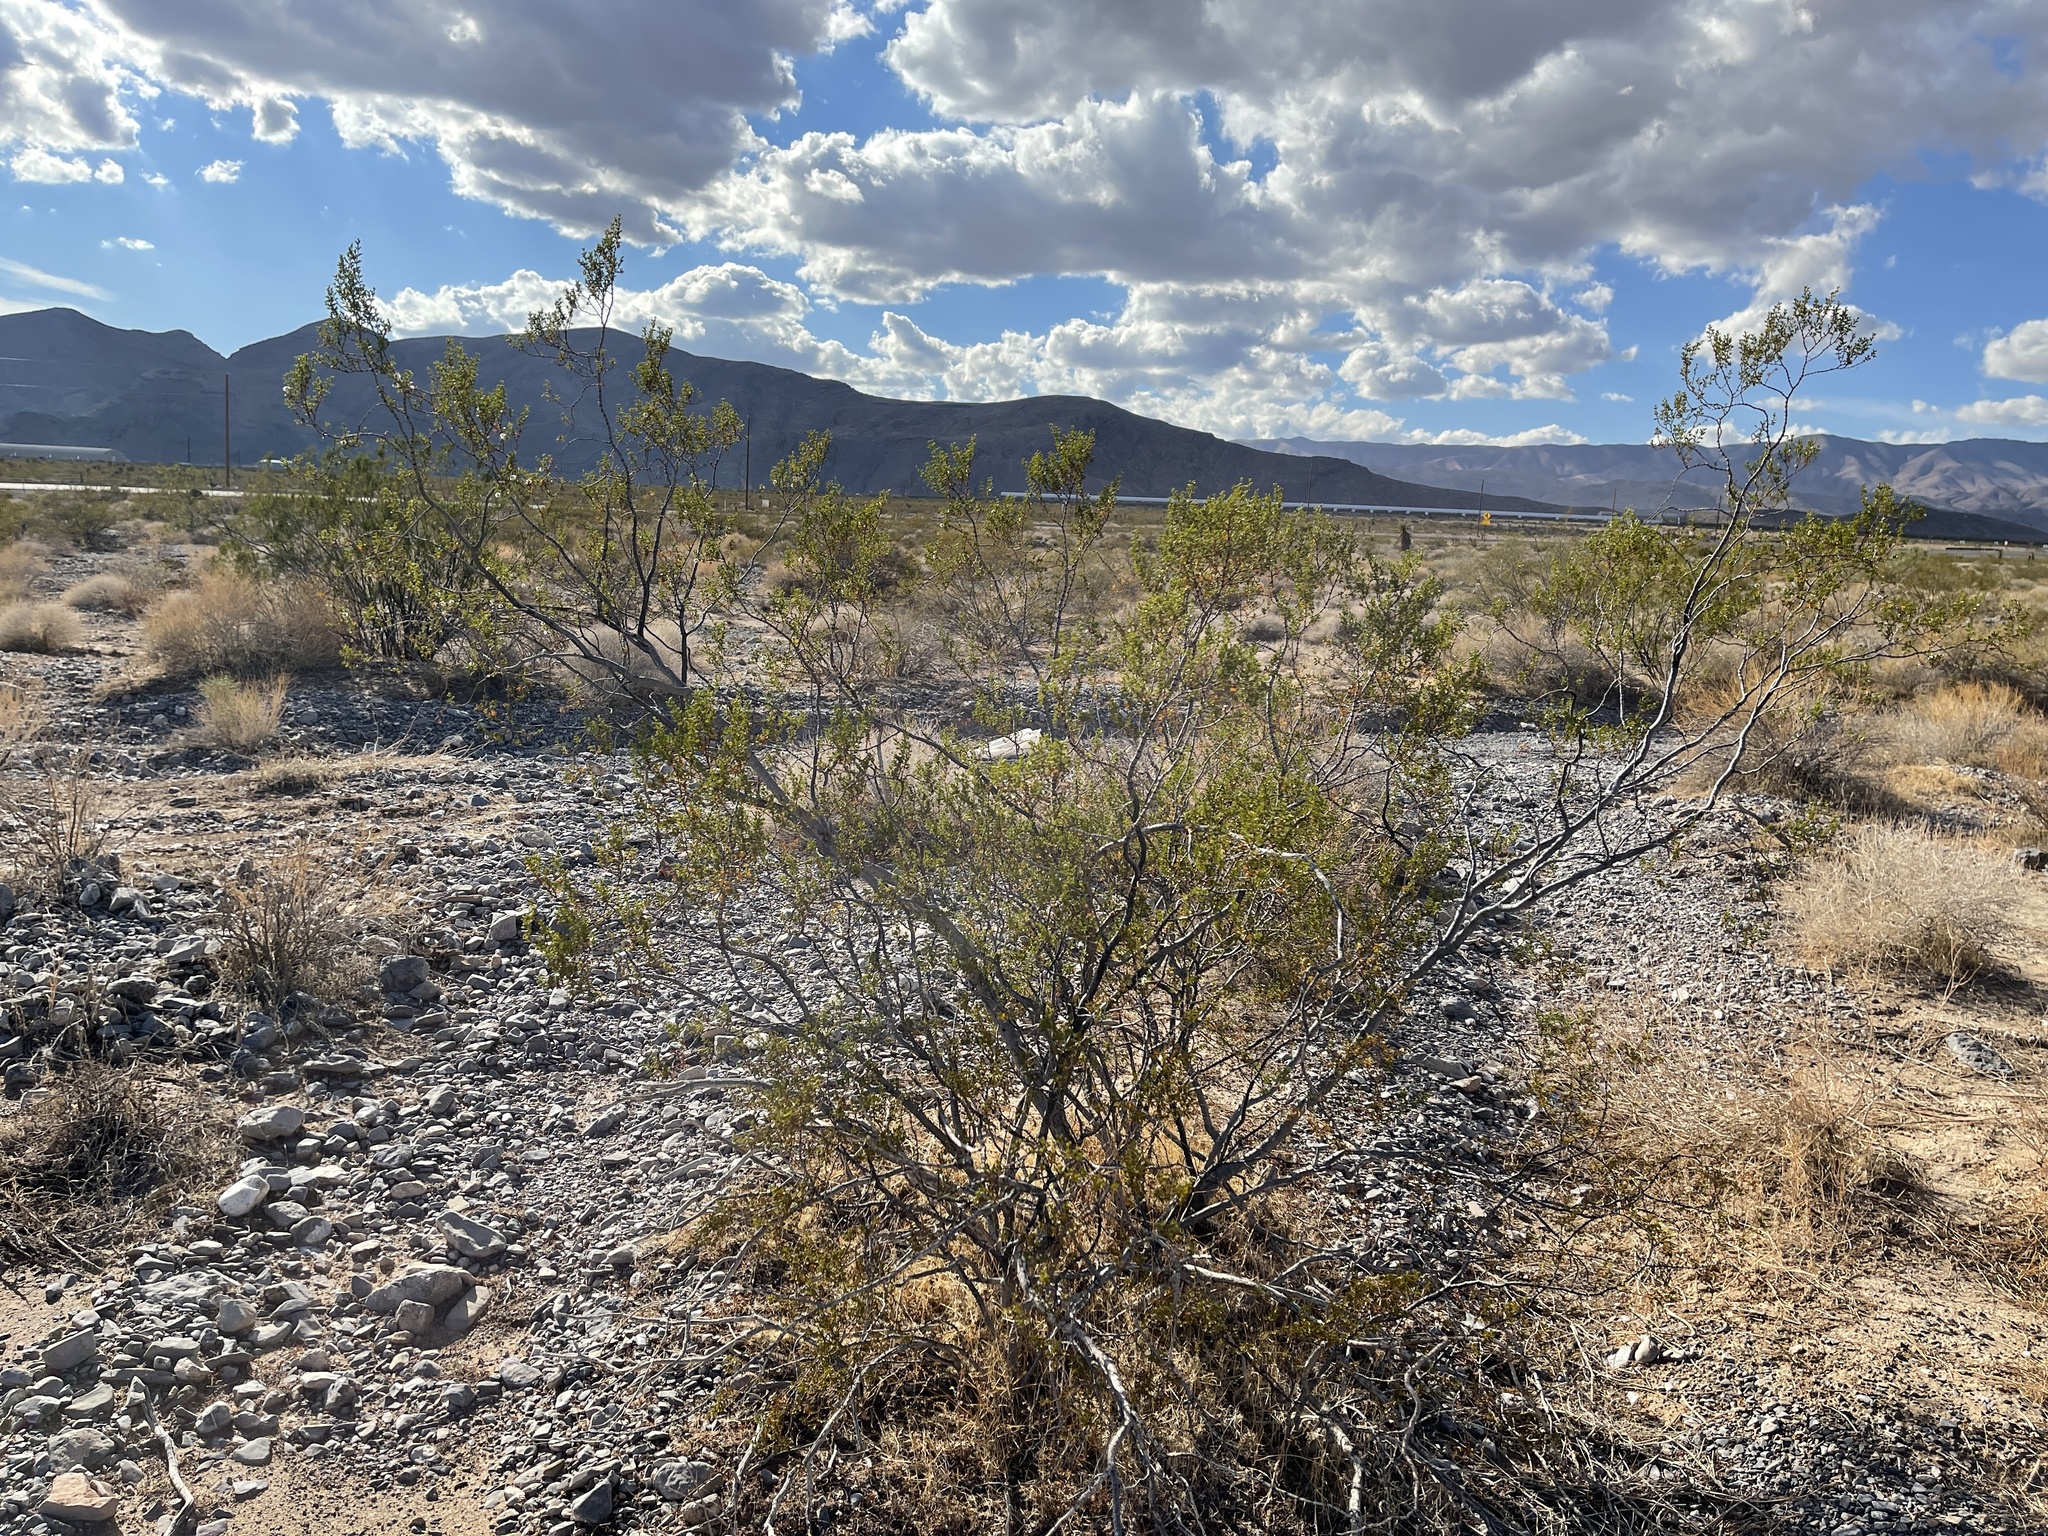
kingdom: Plantae
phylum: Tracheophyta
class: Magnoliopsida
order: Zygophyllales
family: Zygophyllaceae
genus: Larrea
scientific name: Larrea tridentata
